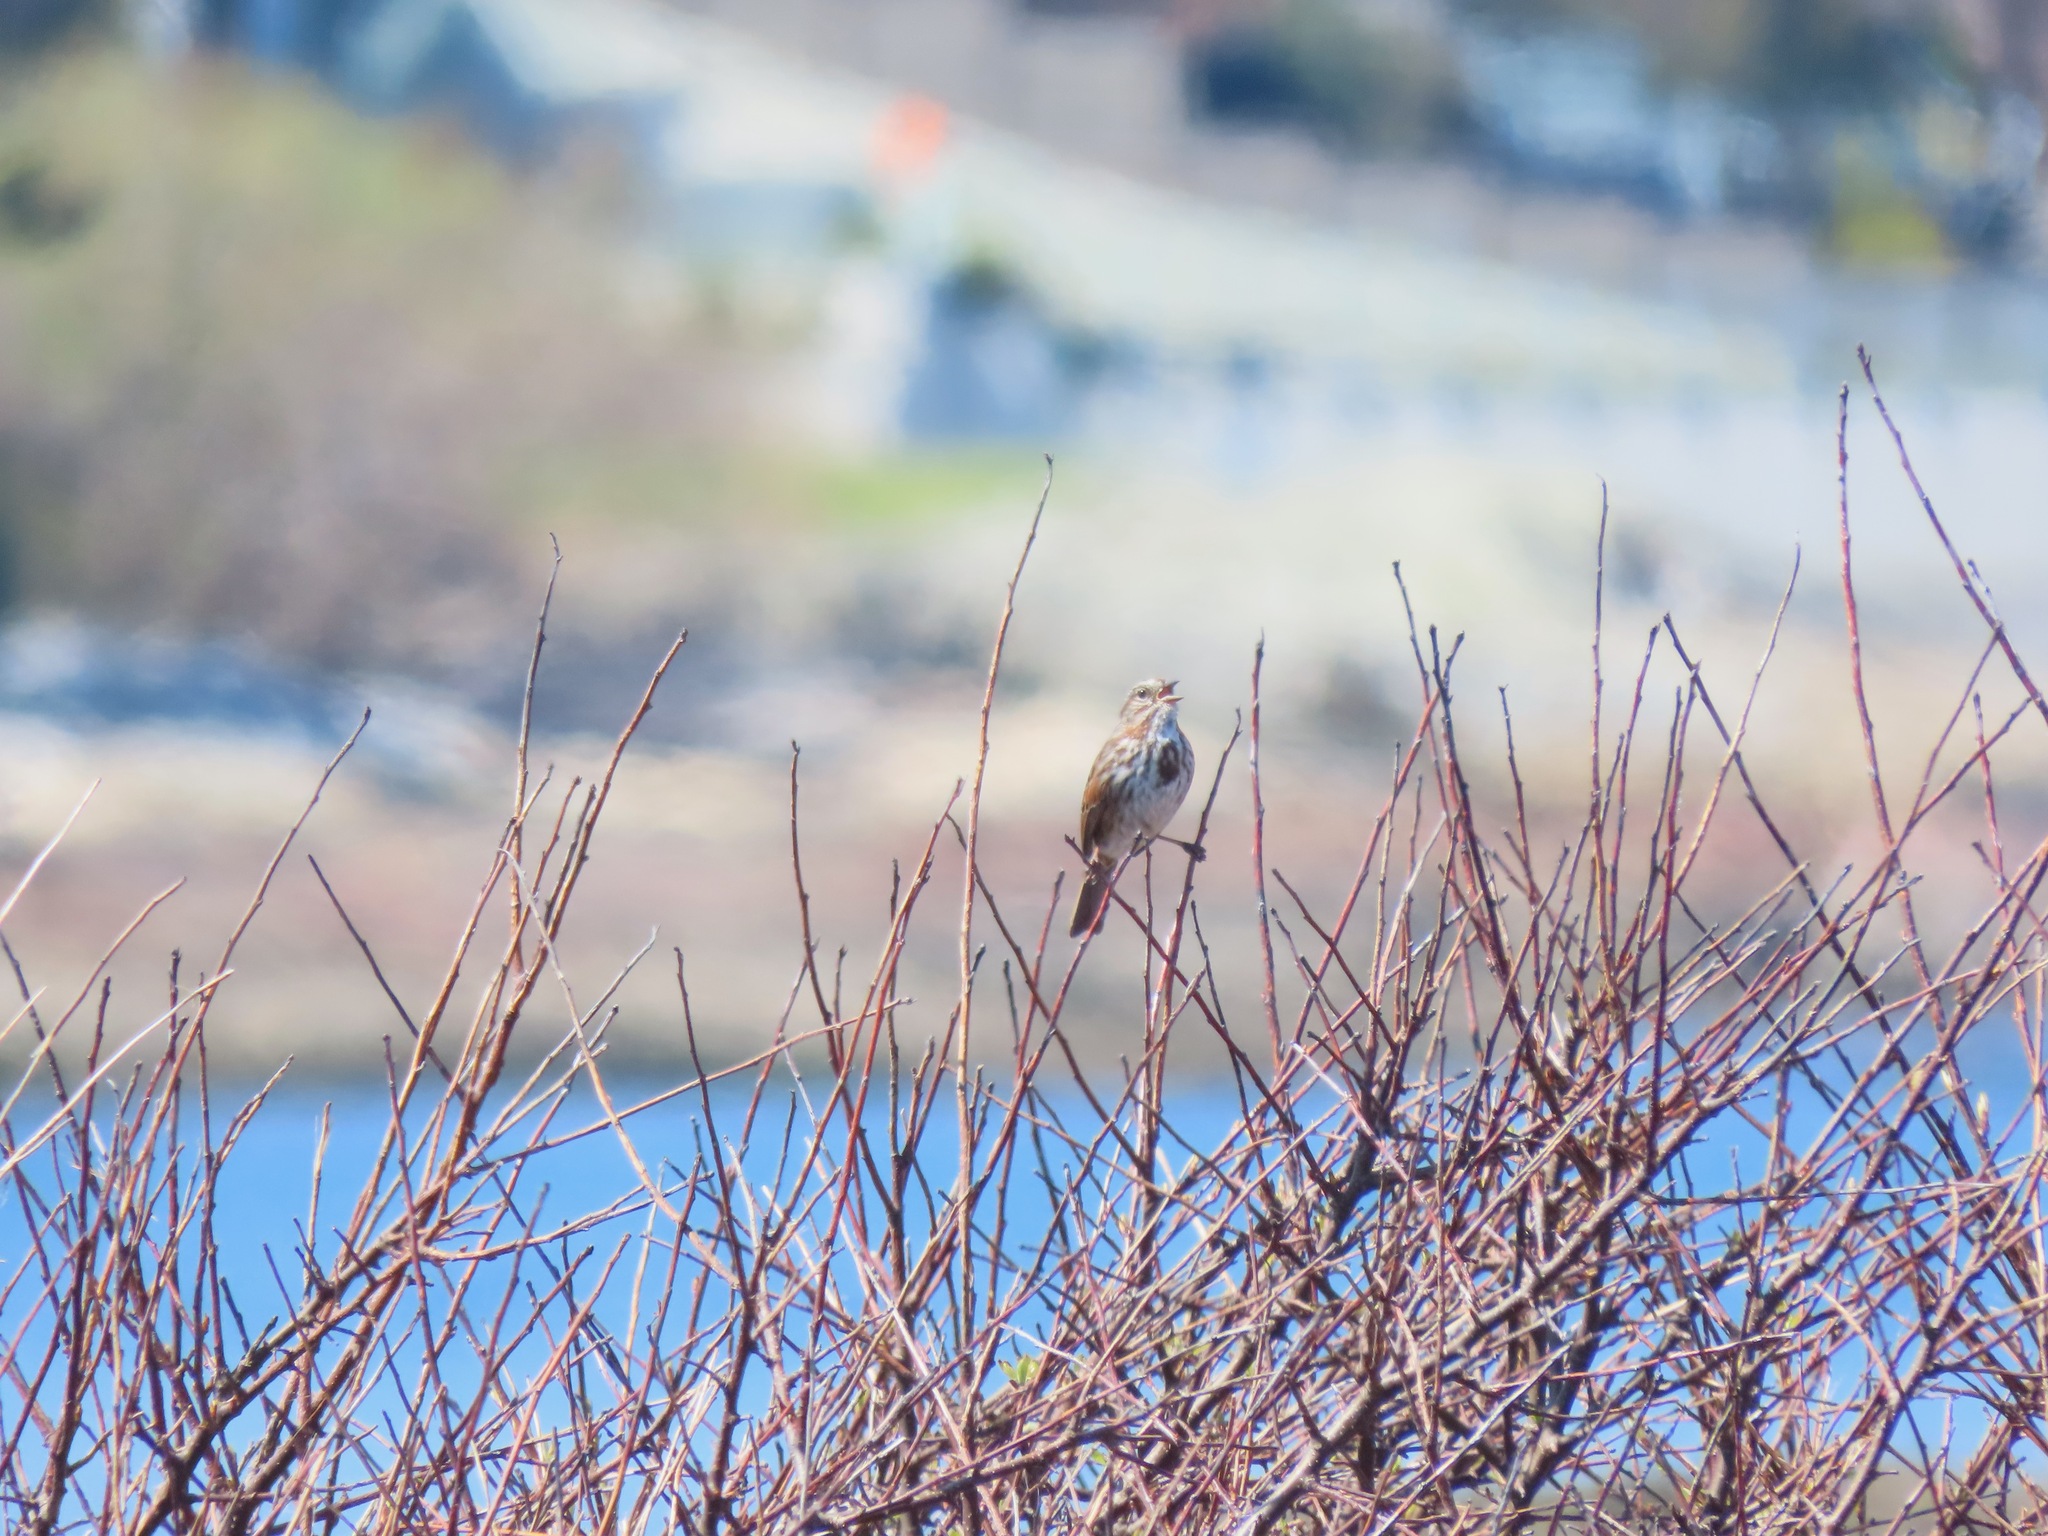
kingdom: Animalia
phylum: Chordata
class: Aves
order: Passeriformes
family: Passerellidae
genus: Melospiza
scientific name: Melospiza melodia
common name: Song sparrow
